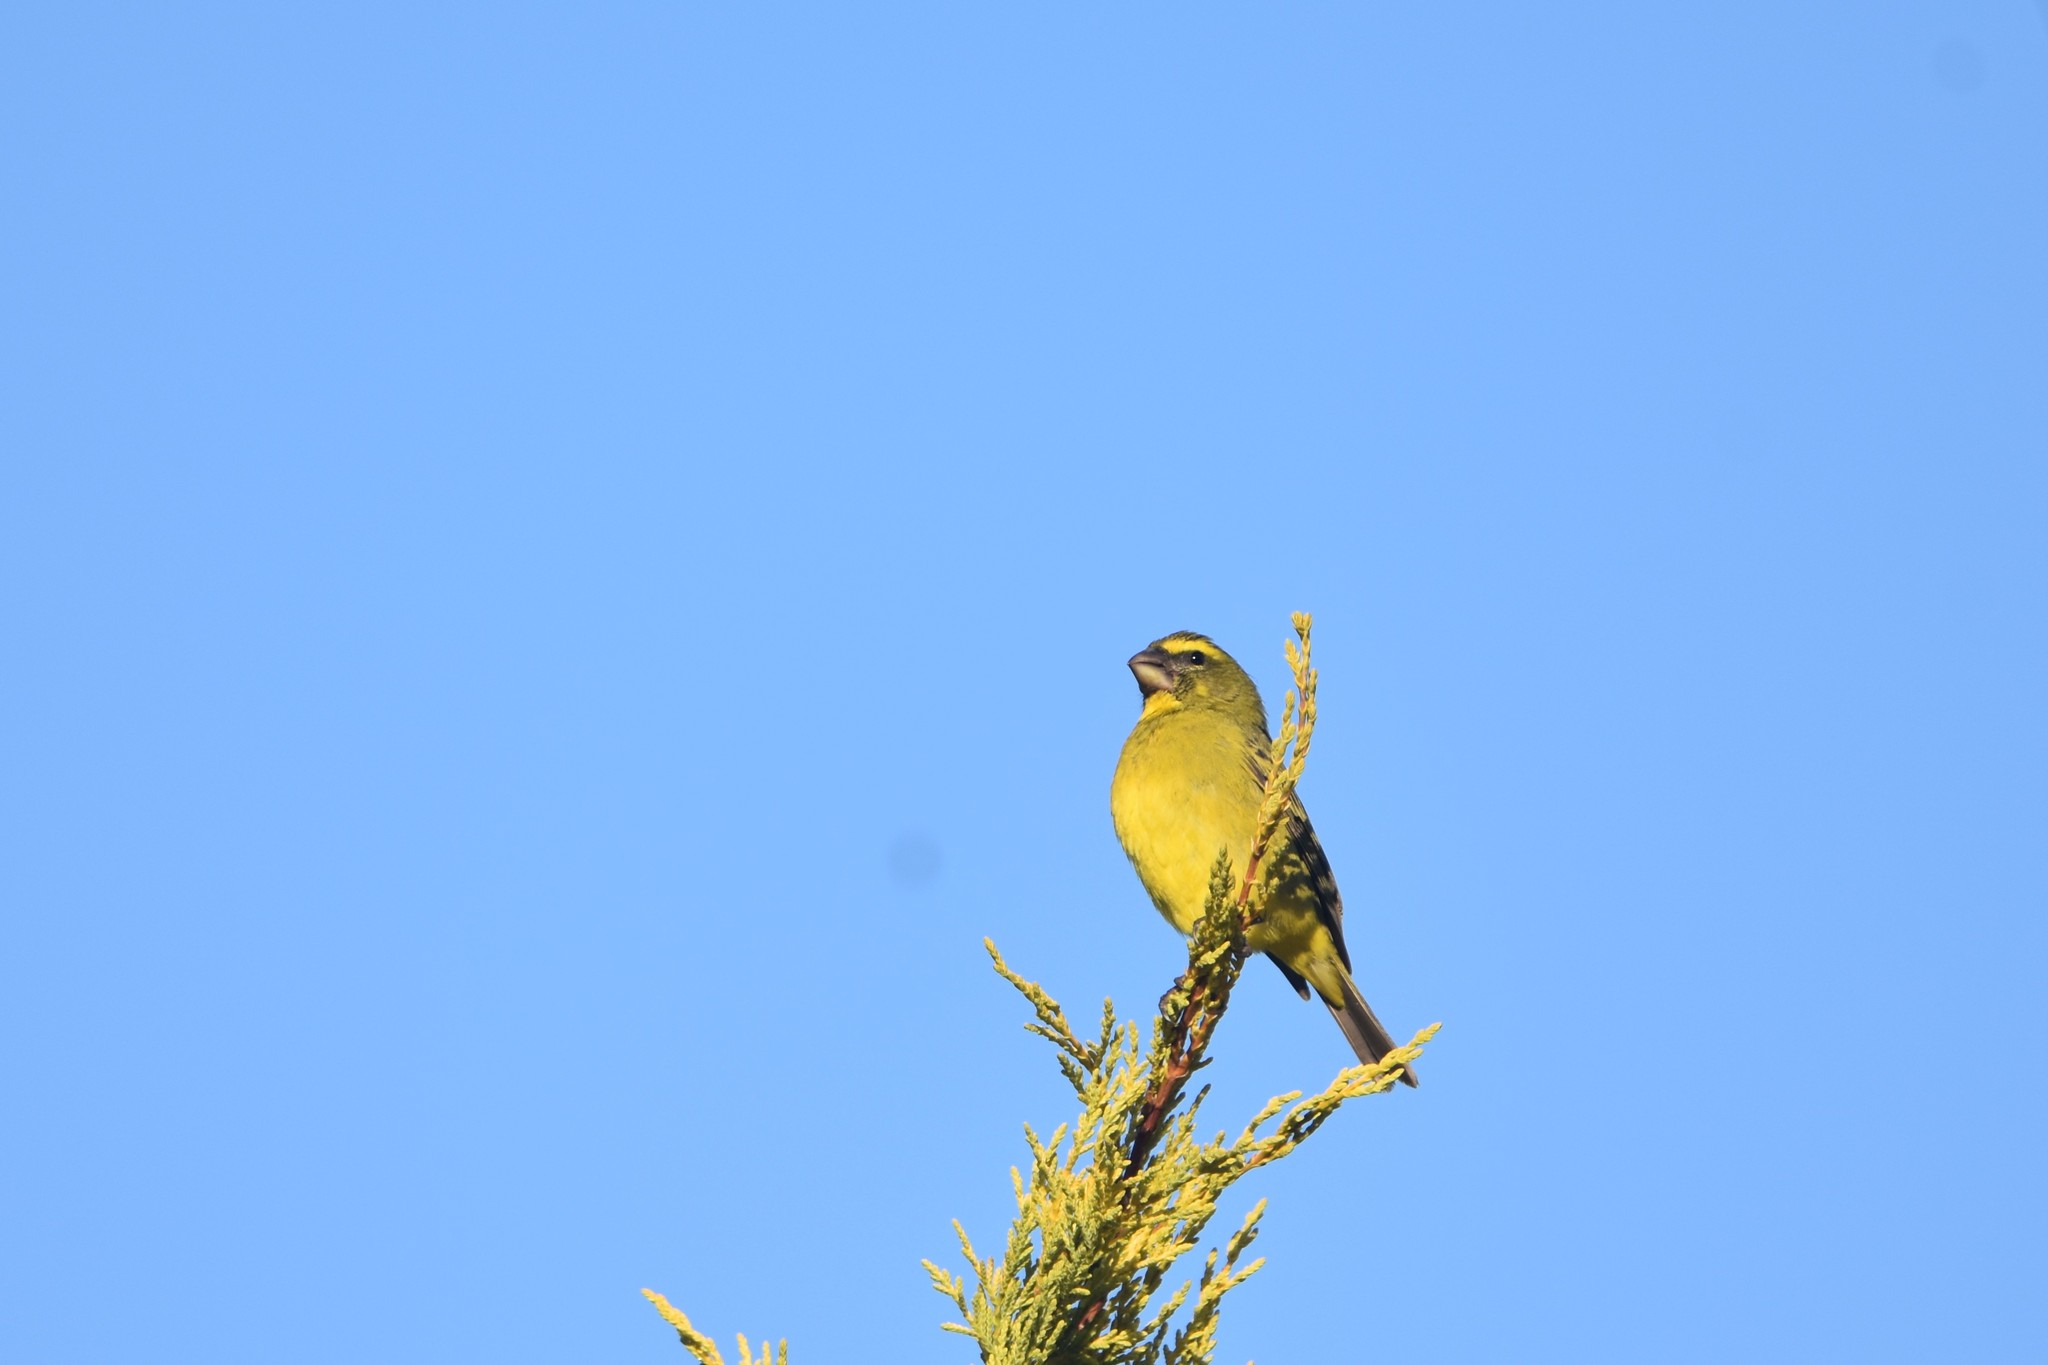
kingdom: Animalia
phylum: Chordata
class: Aves
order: Passeriformes
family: Fringillidae
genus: Crithagra
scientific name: Crithagra sulphurata
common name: Brimstone canary
